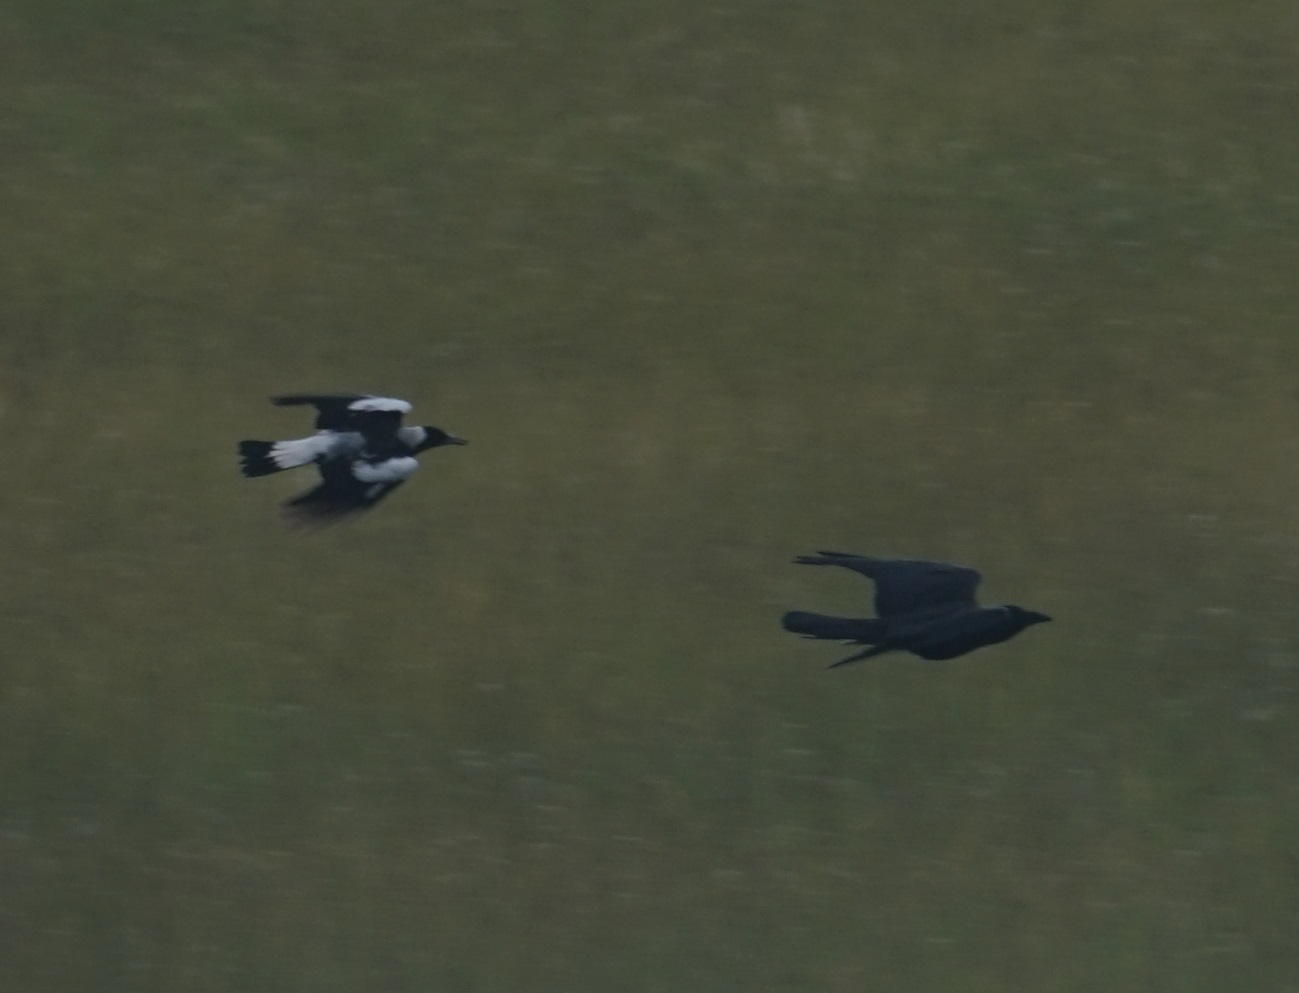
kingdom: Animalia
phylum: Chordata
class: Aves
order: Passeriformes
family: Cracticidae
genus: Gymnorhina
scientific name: Gymnorhina tibicen
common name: Australian magpie
